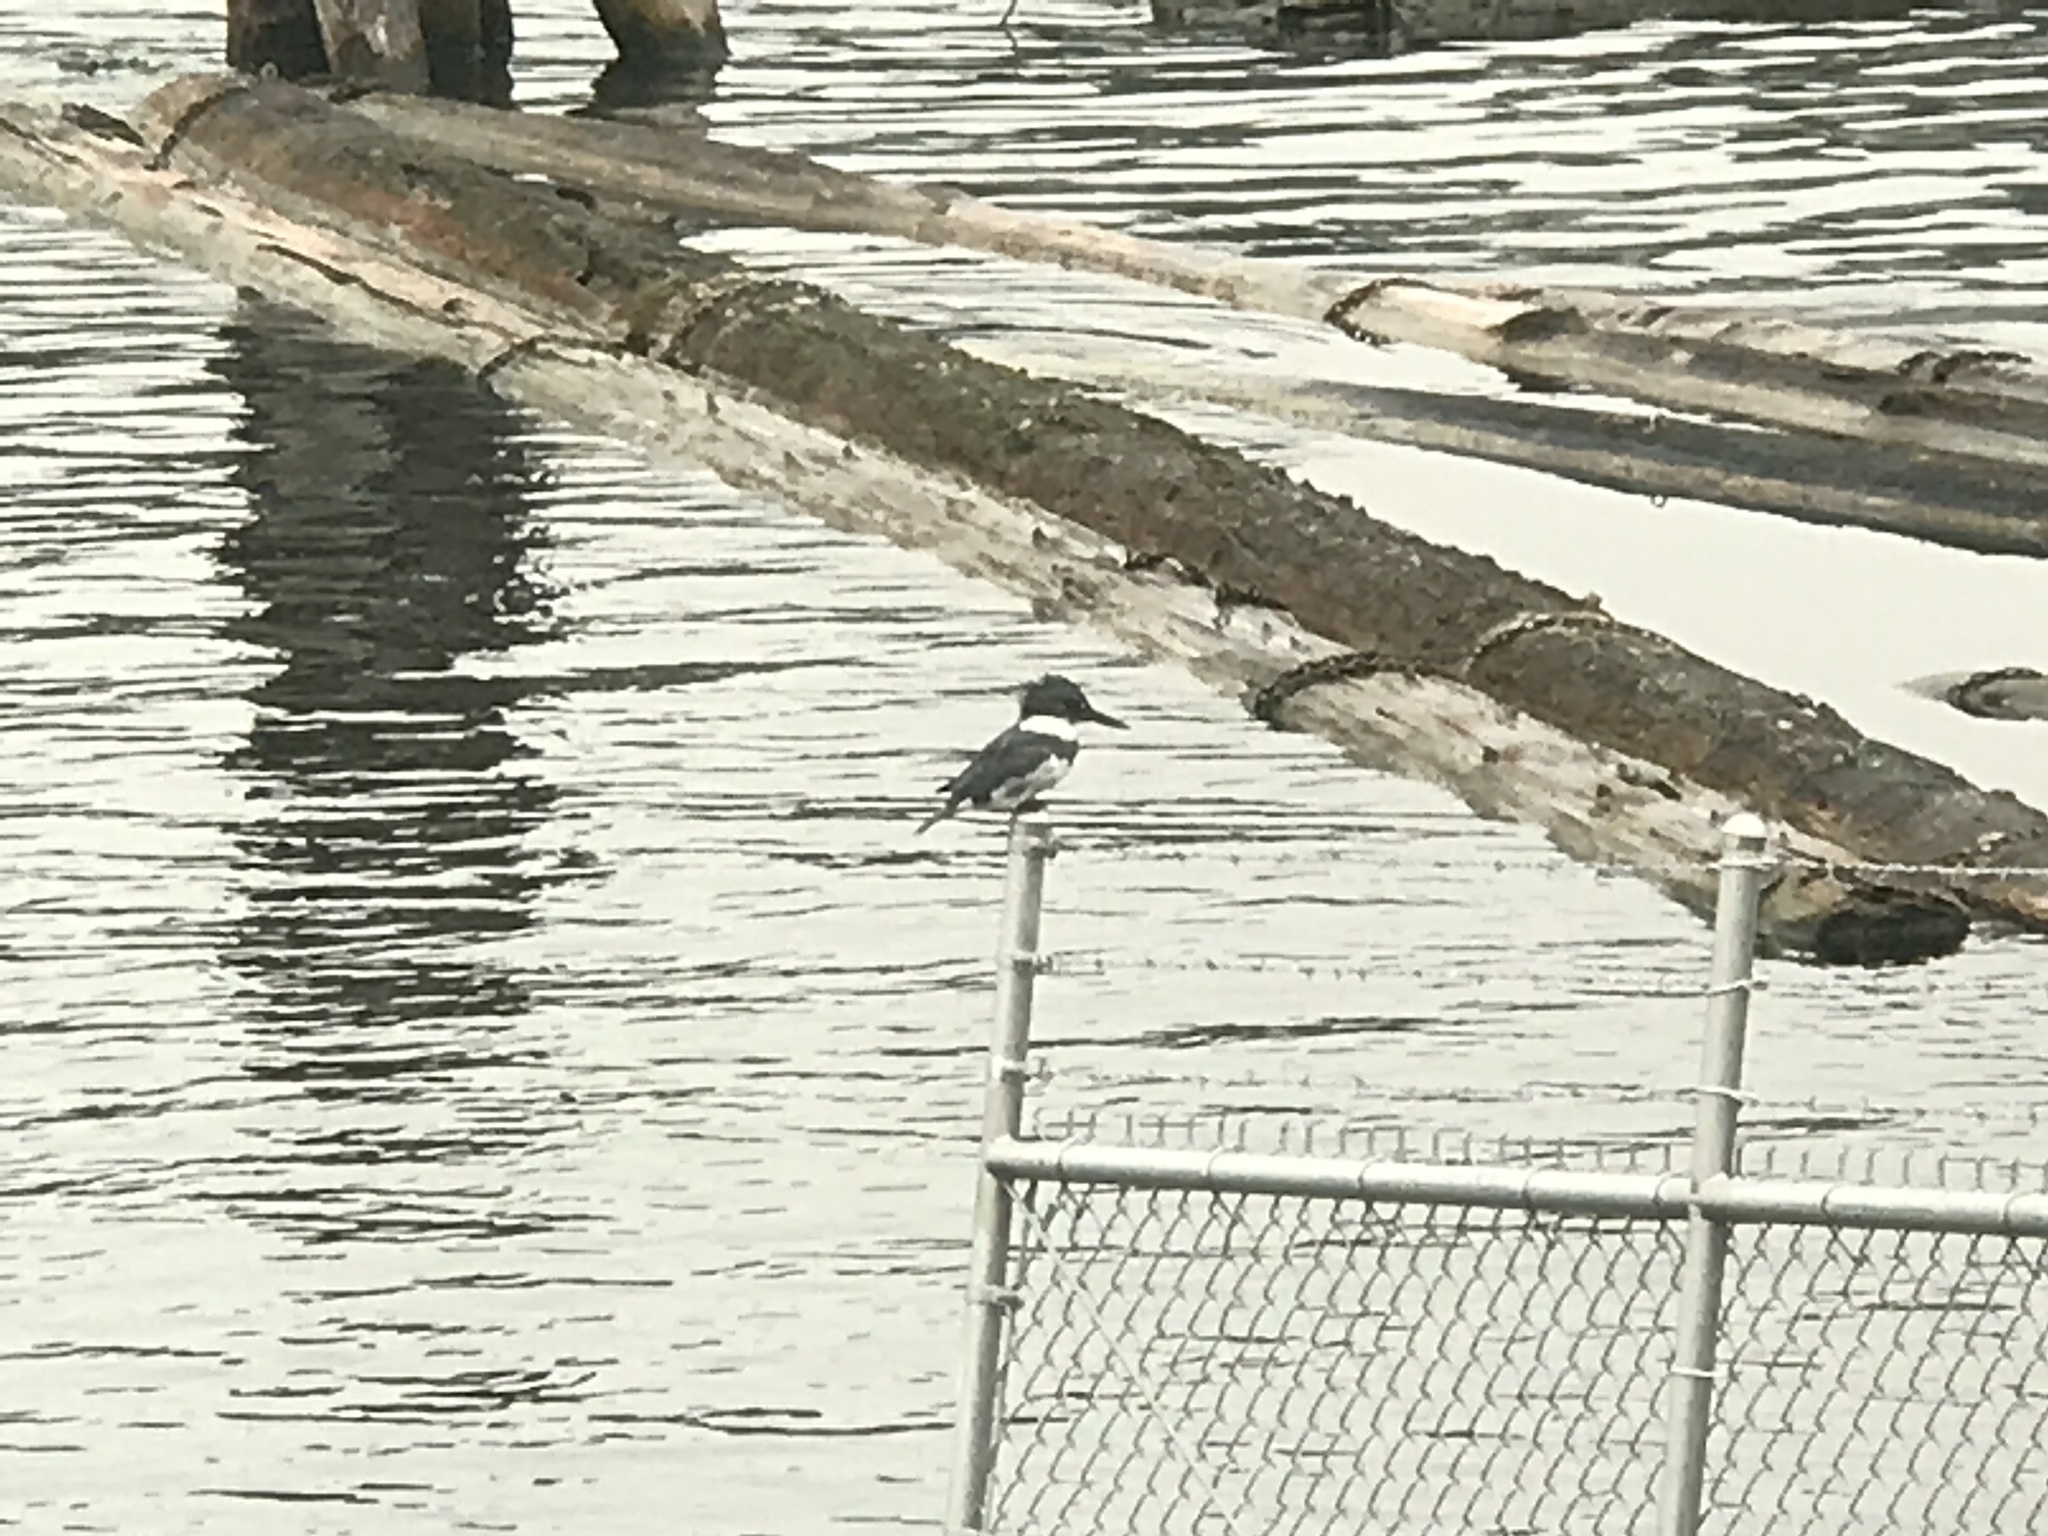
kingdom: Animalia
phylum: Chordata
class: Aves
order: Coraciiformes
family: Alcedinidae
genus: Megaceryle
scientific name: Megaceryle alcyon
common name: Belted kingfisher
